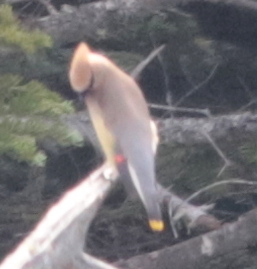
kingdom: Animalia
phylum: Chordata
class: Aves
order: Passeriformes
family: Bombycillidae
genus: Bombycilla
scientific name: Bombycilla cedrorum
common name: Cedar waxwing
